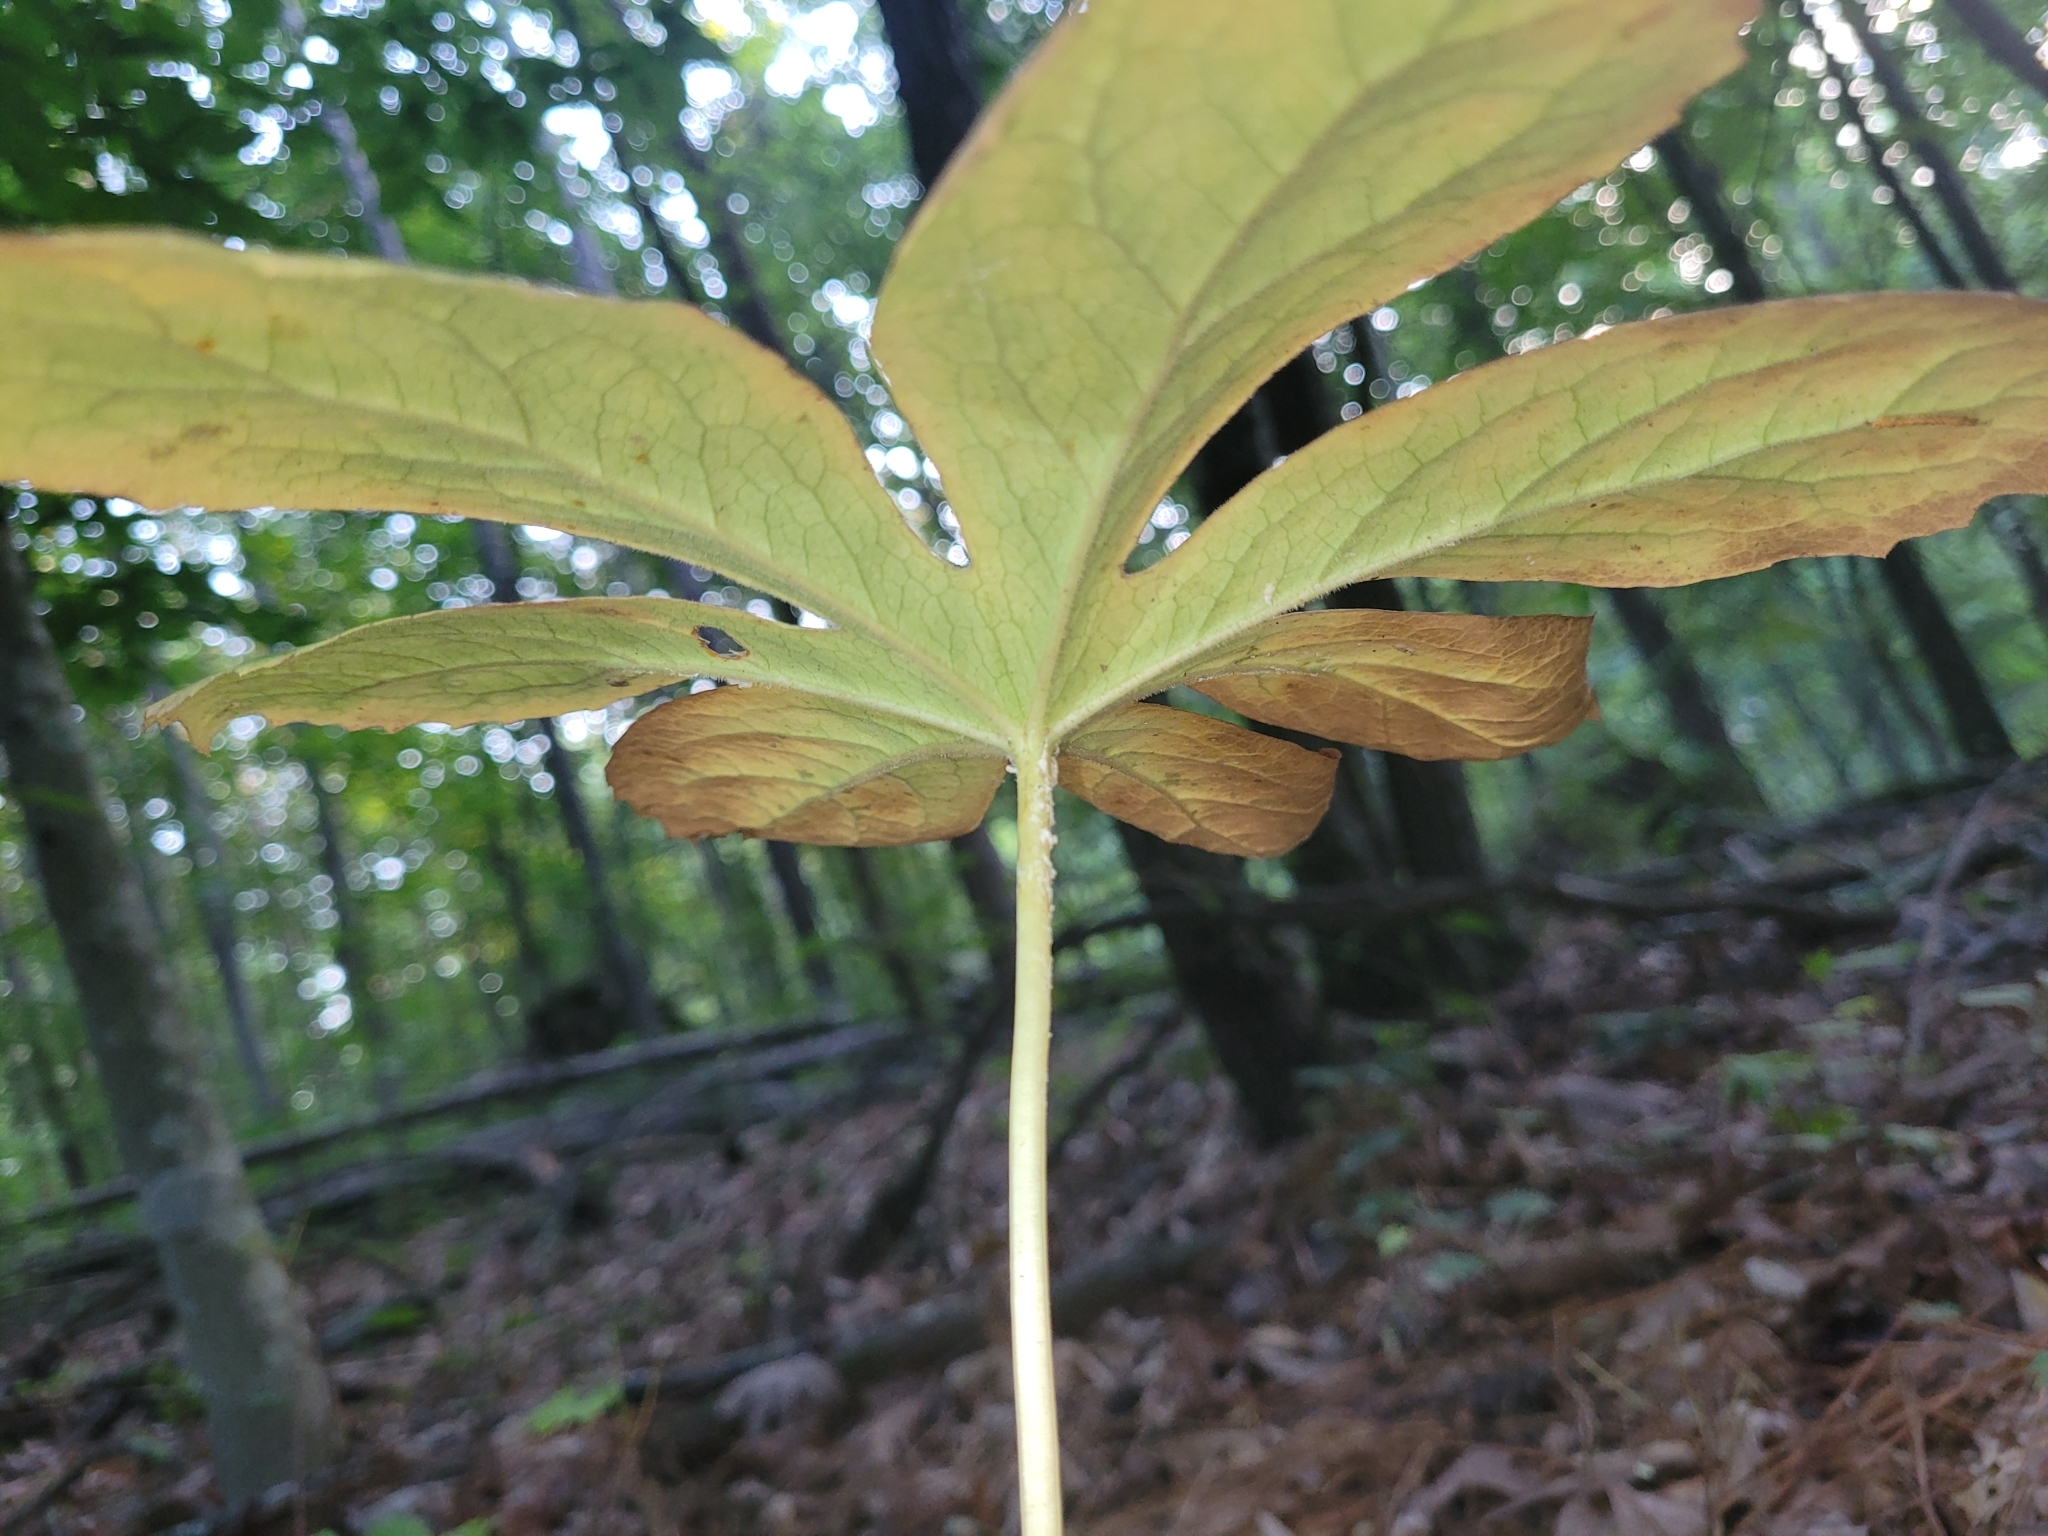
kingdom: Plantae
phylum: Tracheophyta
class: Magnoliopsida
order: Ranunculales
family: Berberidaceae
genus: Podophyllum
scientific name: Podophyllum peltatum
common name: Wild mandrake
